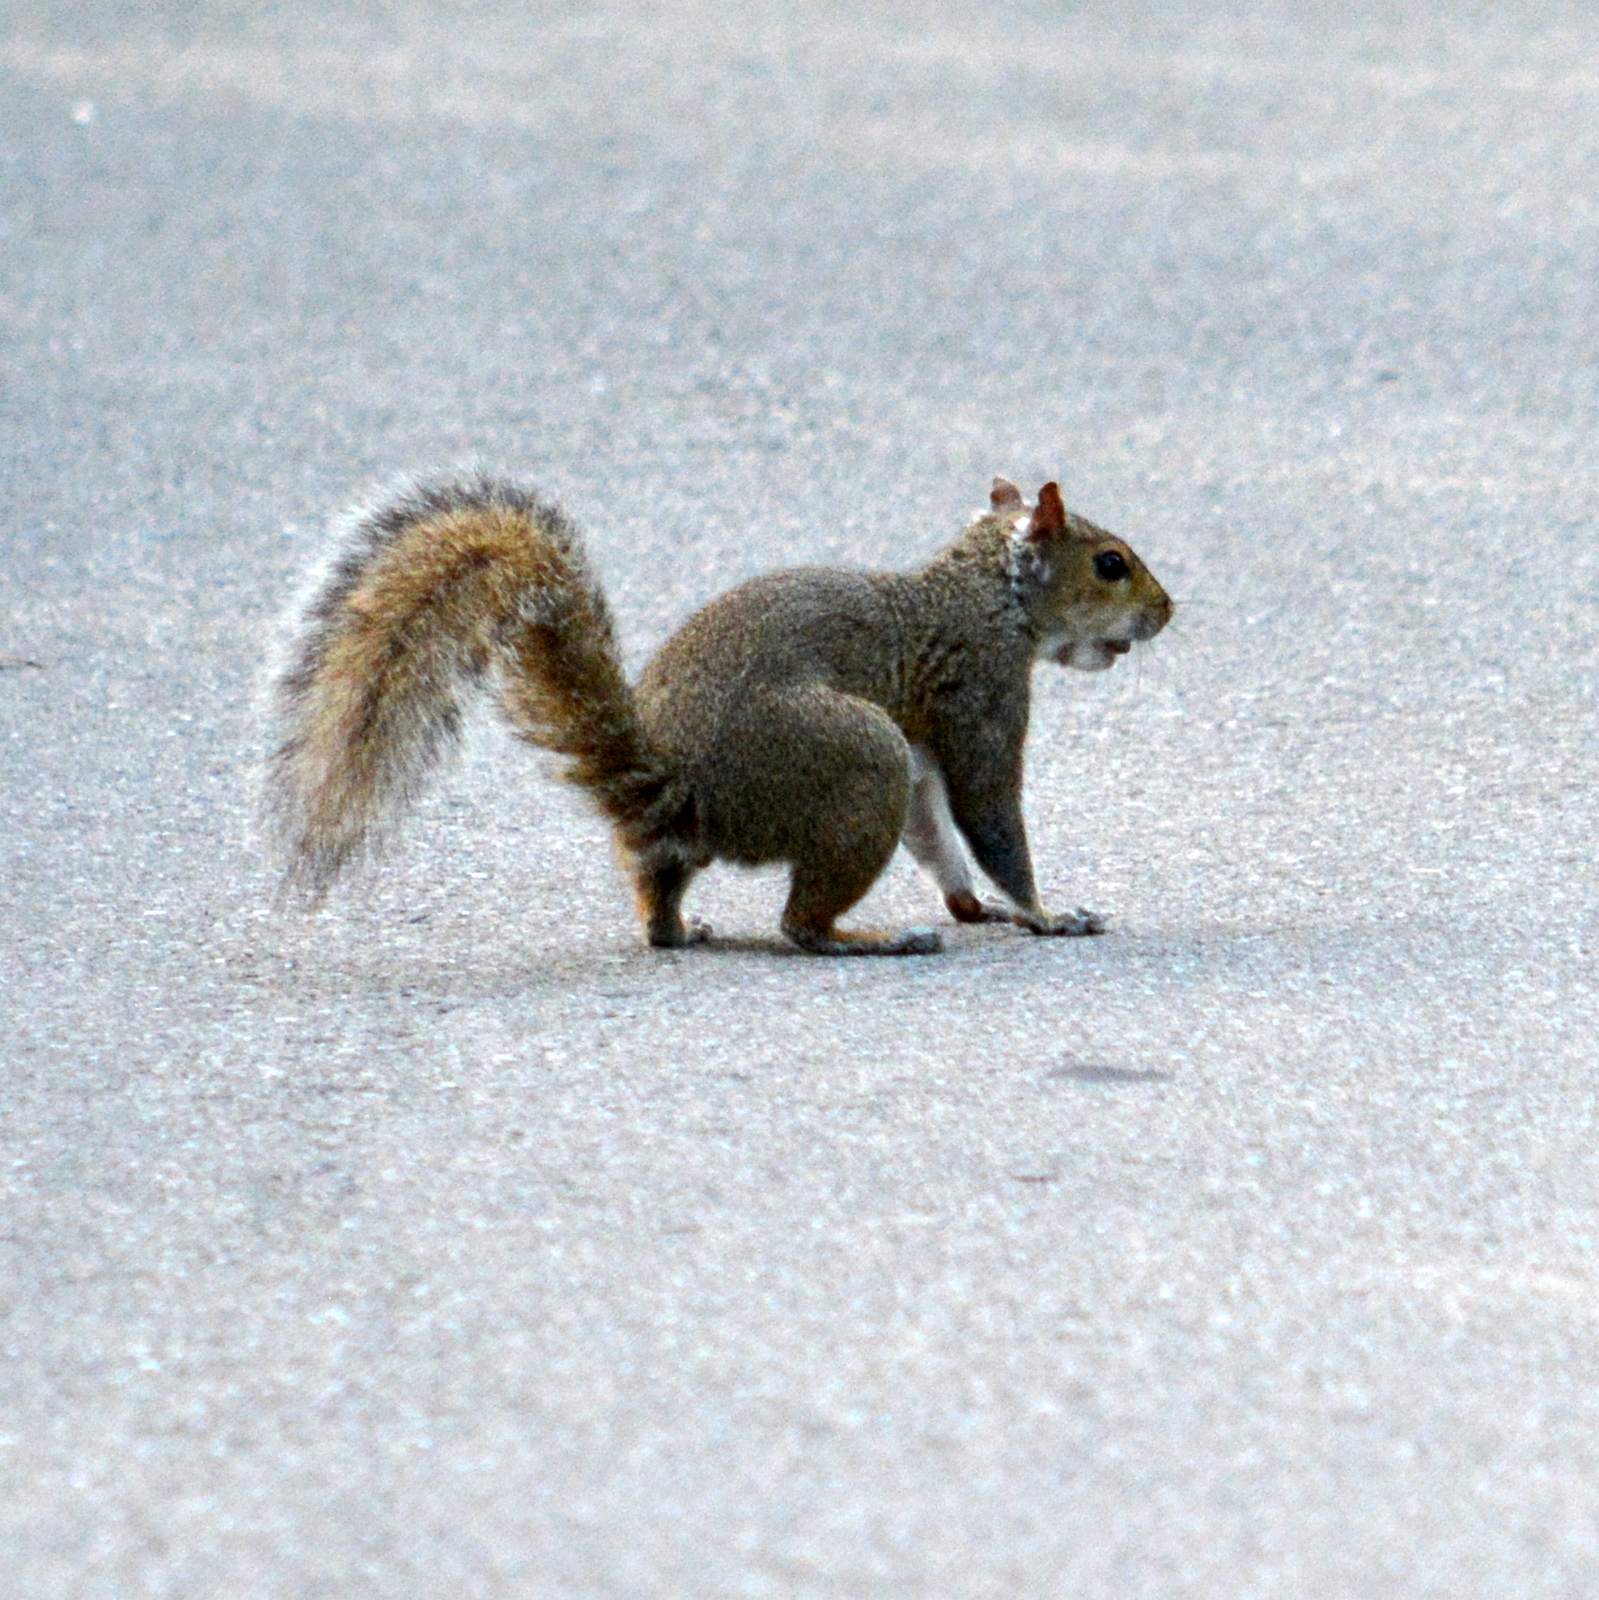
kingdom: Animalia
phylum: Chordata
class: Mammalia
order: Rodentia
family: Sciuridae
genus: Sciurus
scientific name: Sciurus carolinensis
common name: Eastern gray squirrel
